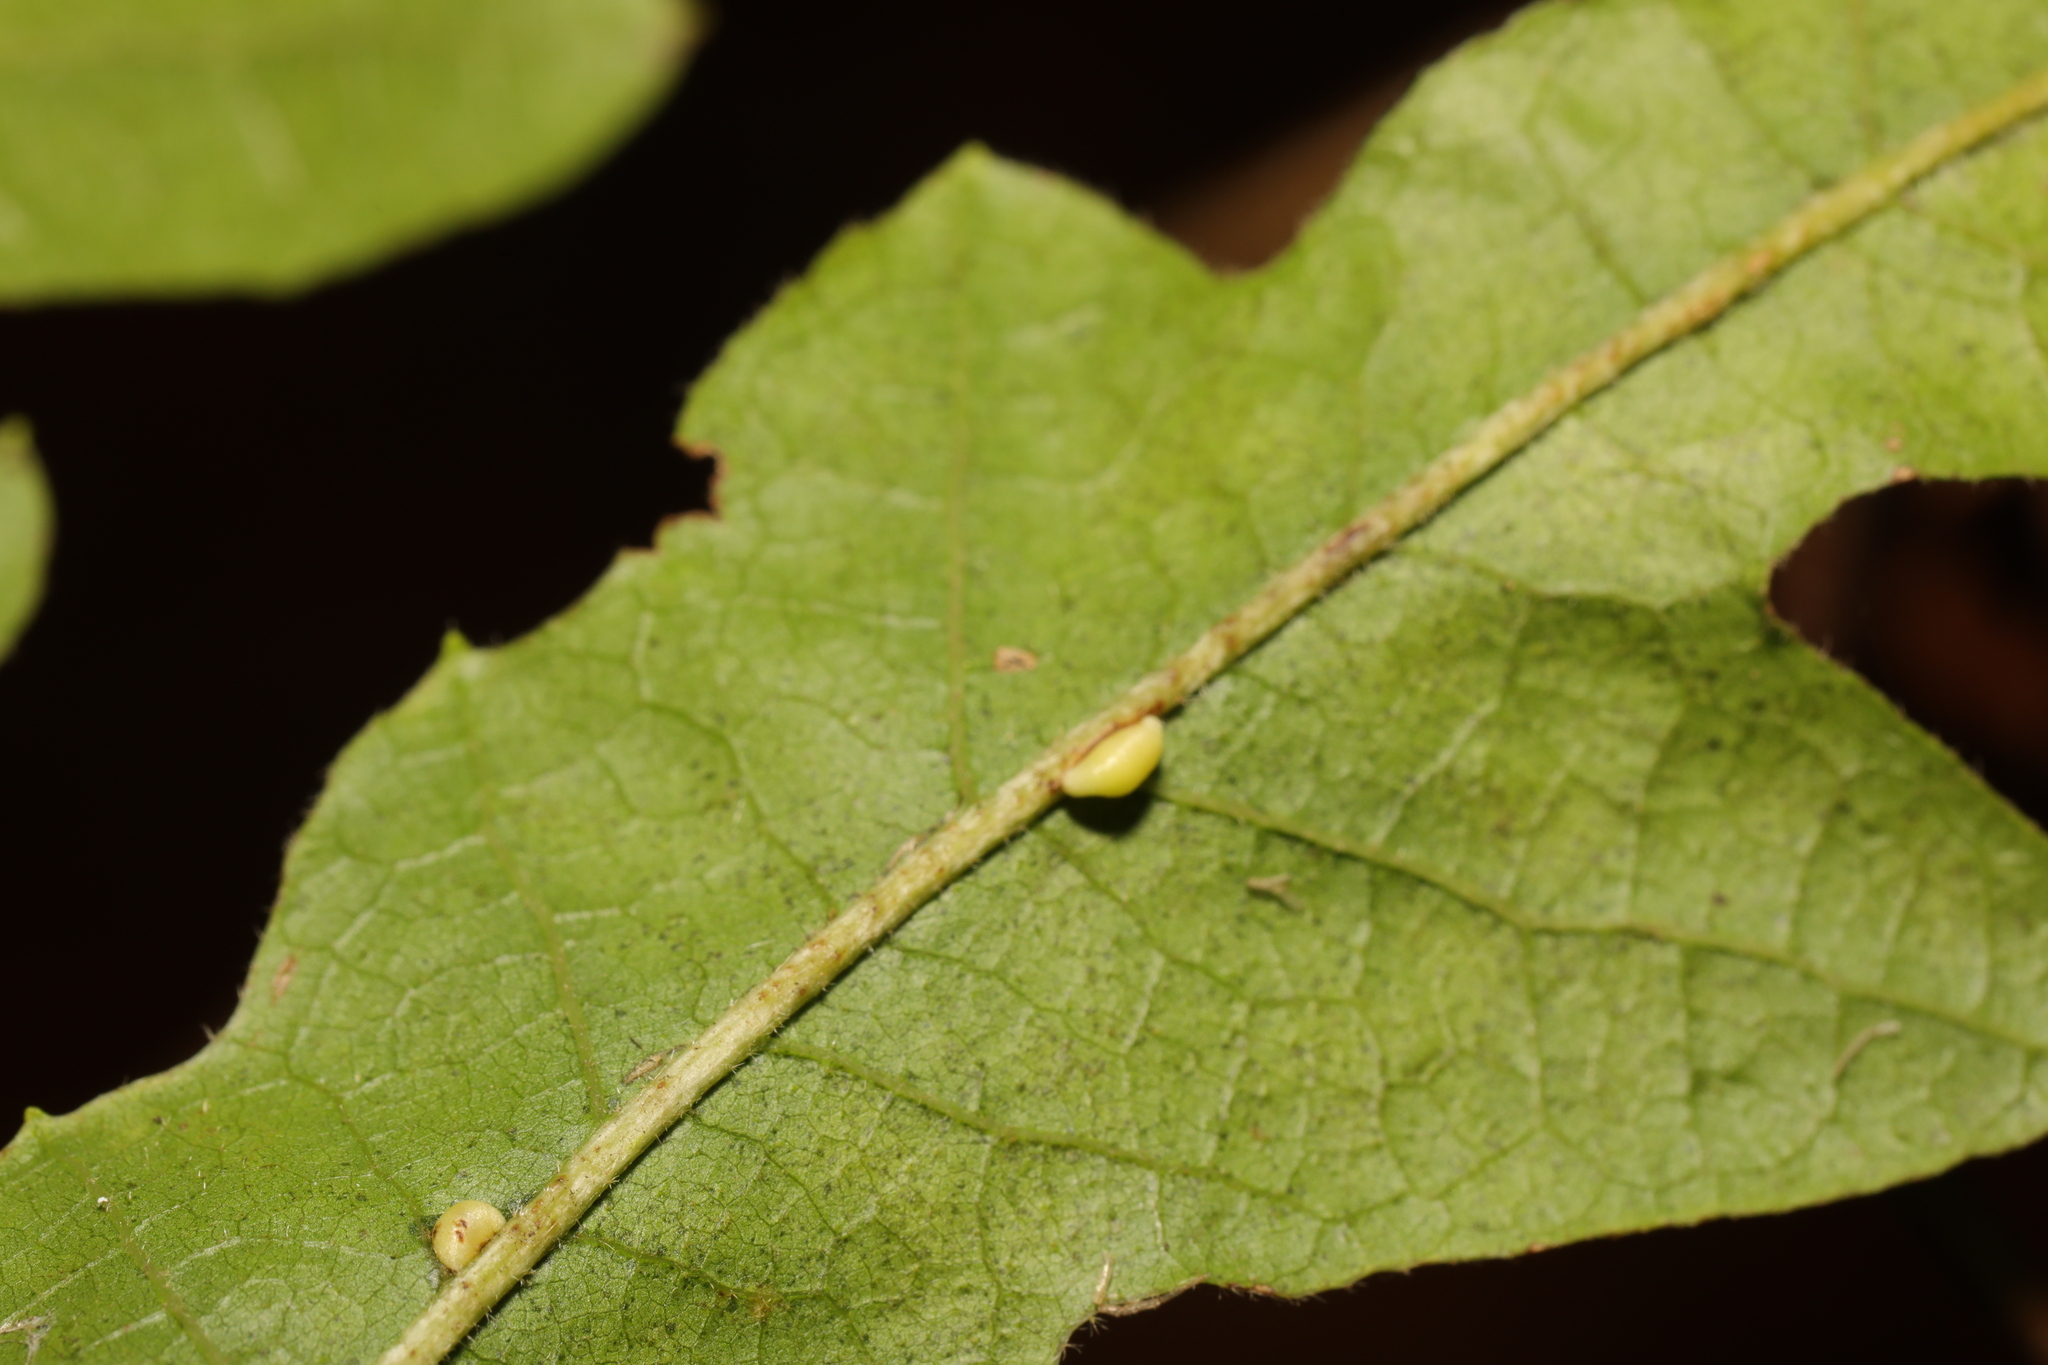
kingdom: Animalia
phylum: Arthropoda
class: Insecta
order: Hymenoptera
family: Cynipidae
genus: Neuroterus
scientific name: Neuroterus saliens
